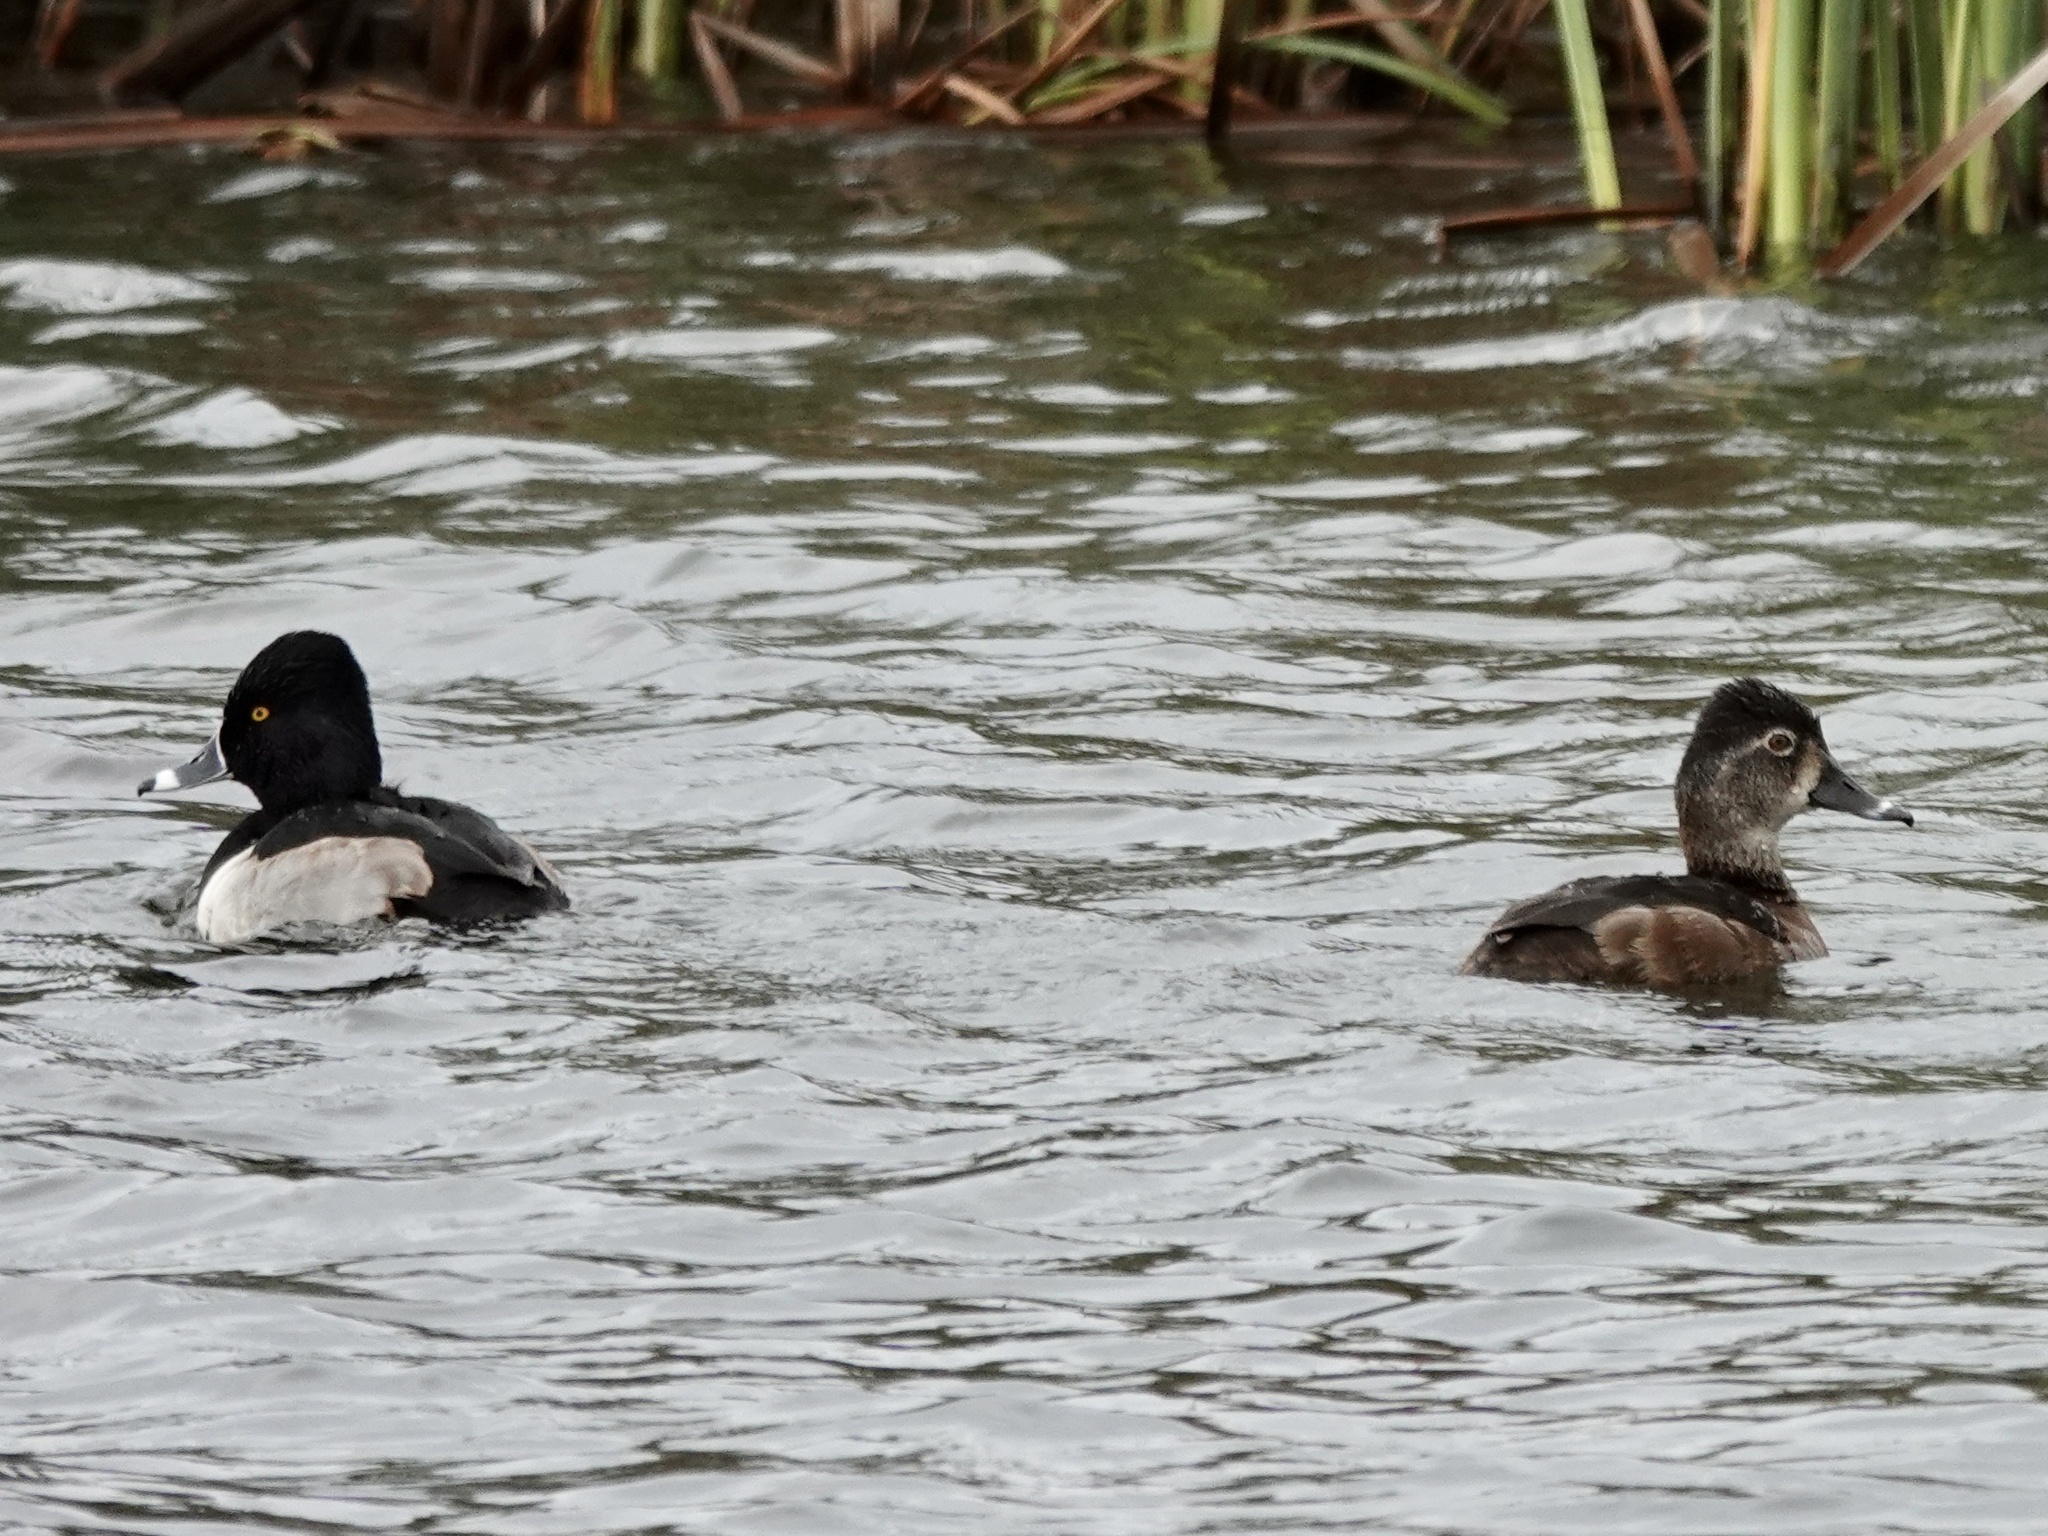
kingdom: Animalia
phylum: Chordata
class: Aves
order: Anseriformes
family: Anatidae
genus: Aythya
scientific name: Aythya collaris
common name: Ring-necked duck
